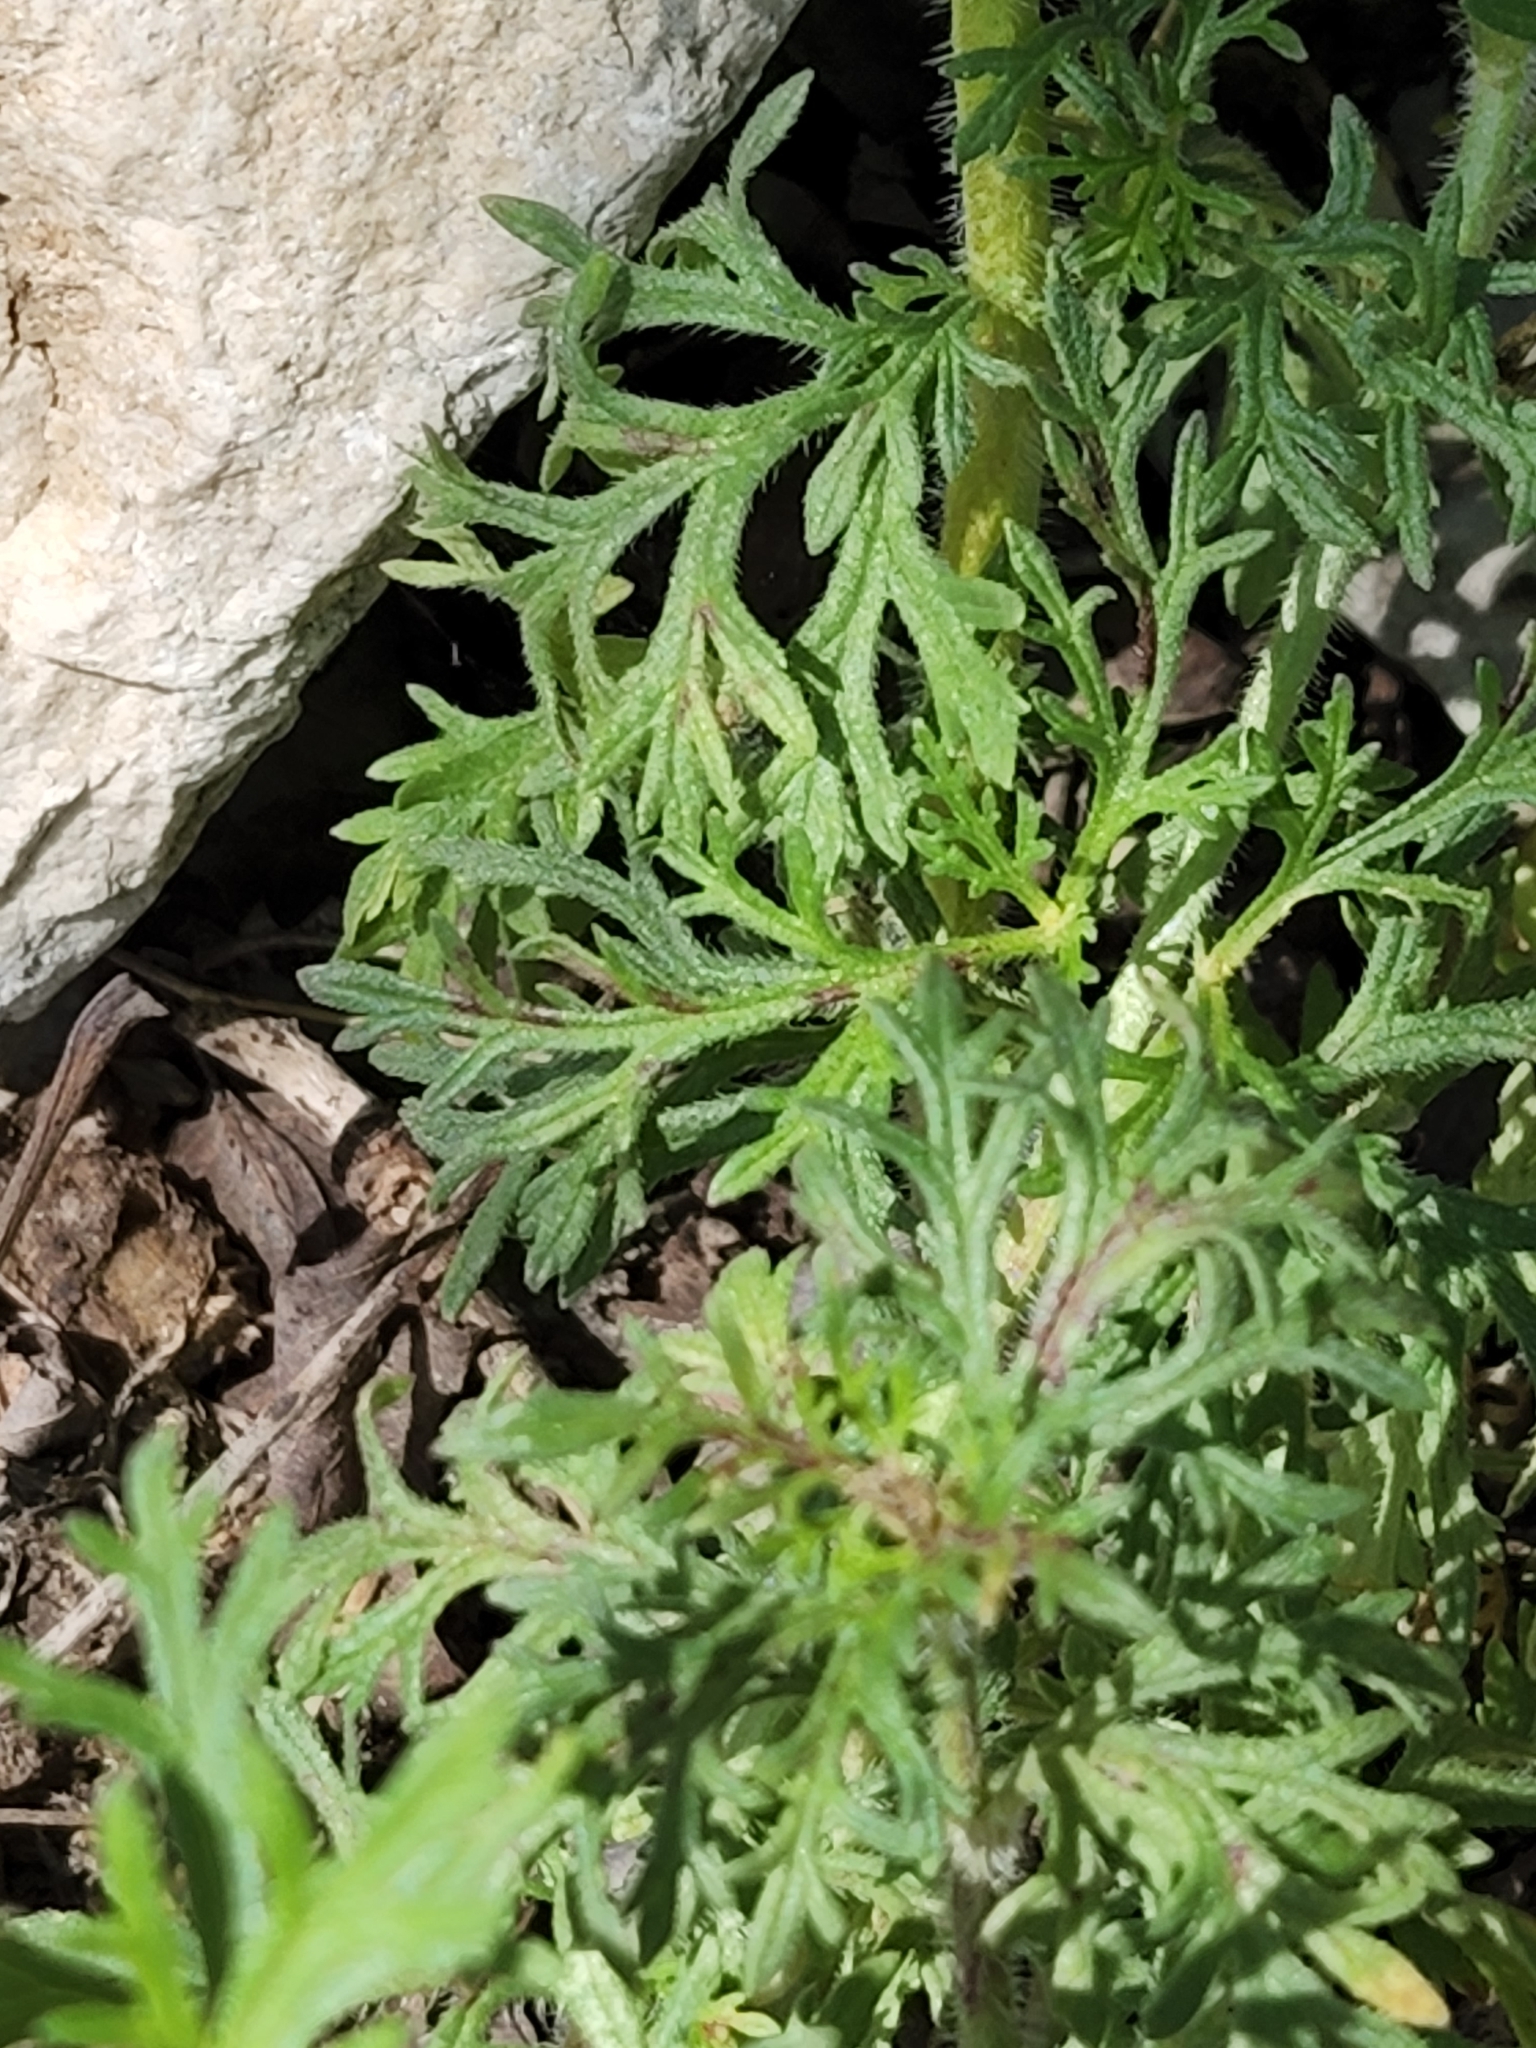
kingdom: Plantae
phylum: Tracheophyta
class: Magnoliopsida
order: Lamiales
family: Verbenaceae
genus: Verbena
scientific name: Verbena bipinnatifida
